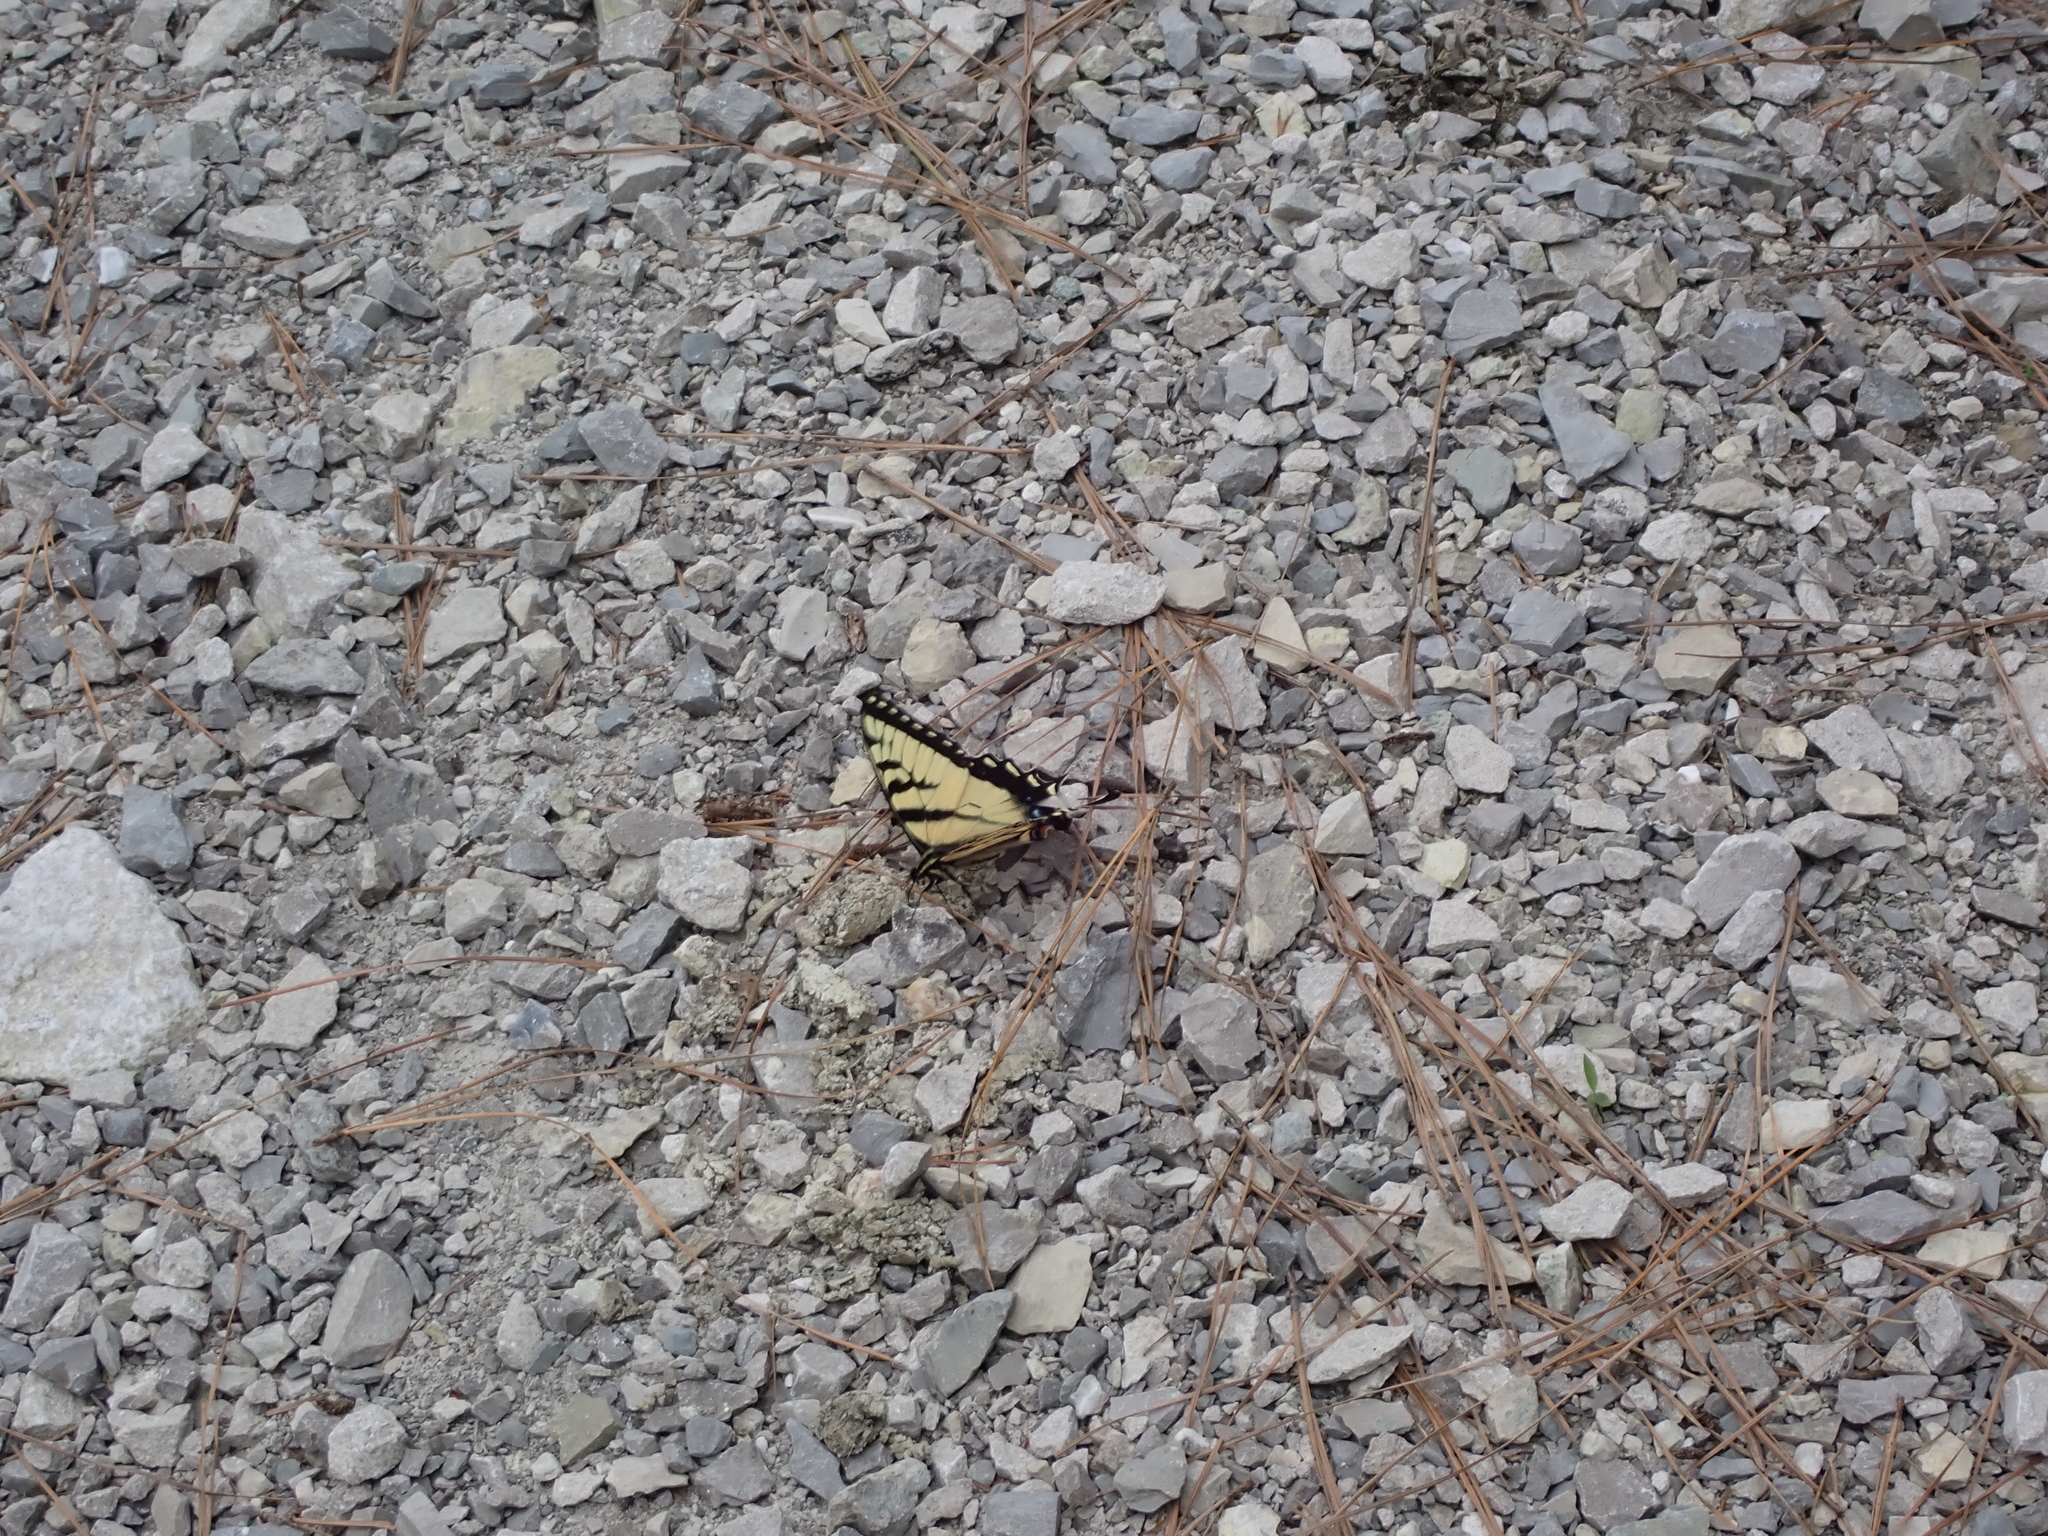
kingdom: Animalia
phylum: Arthropoda
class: Insecta
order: Lepidoptera
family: Papilionidae
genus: Papilio
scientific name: Papilio glaucus
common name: Tiger swallowtail
